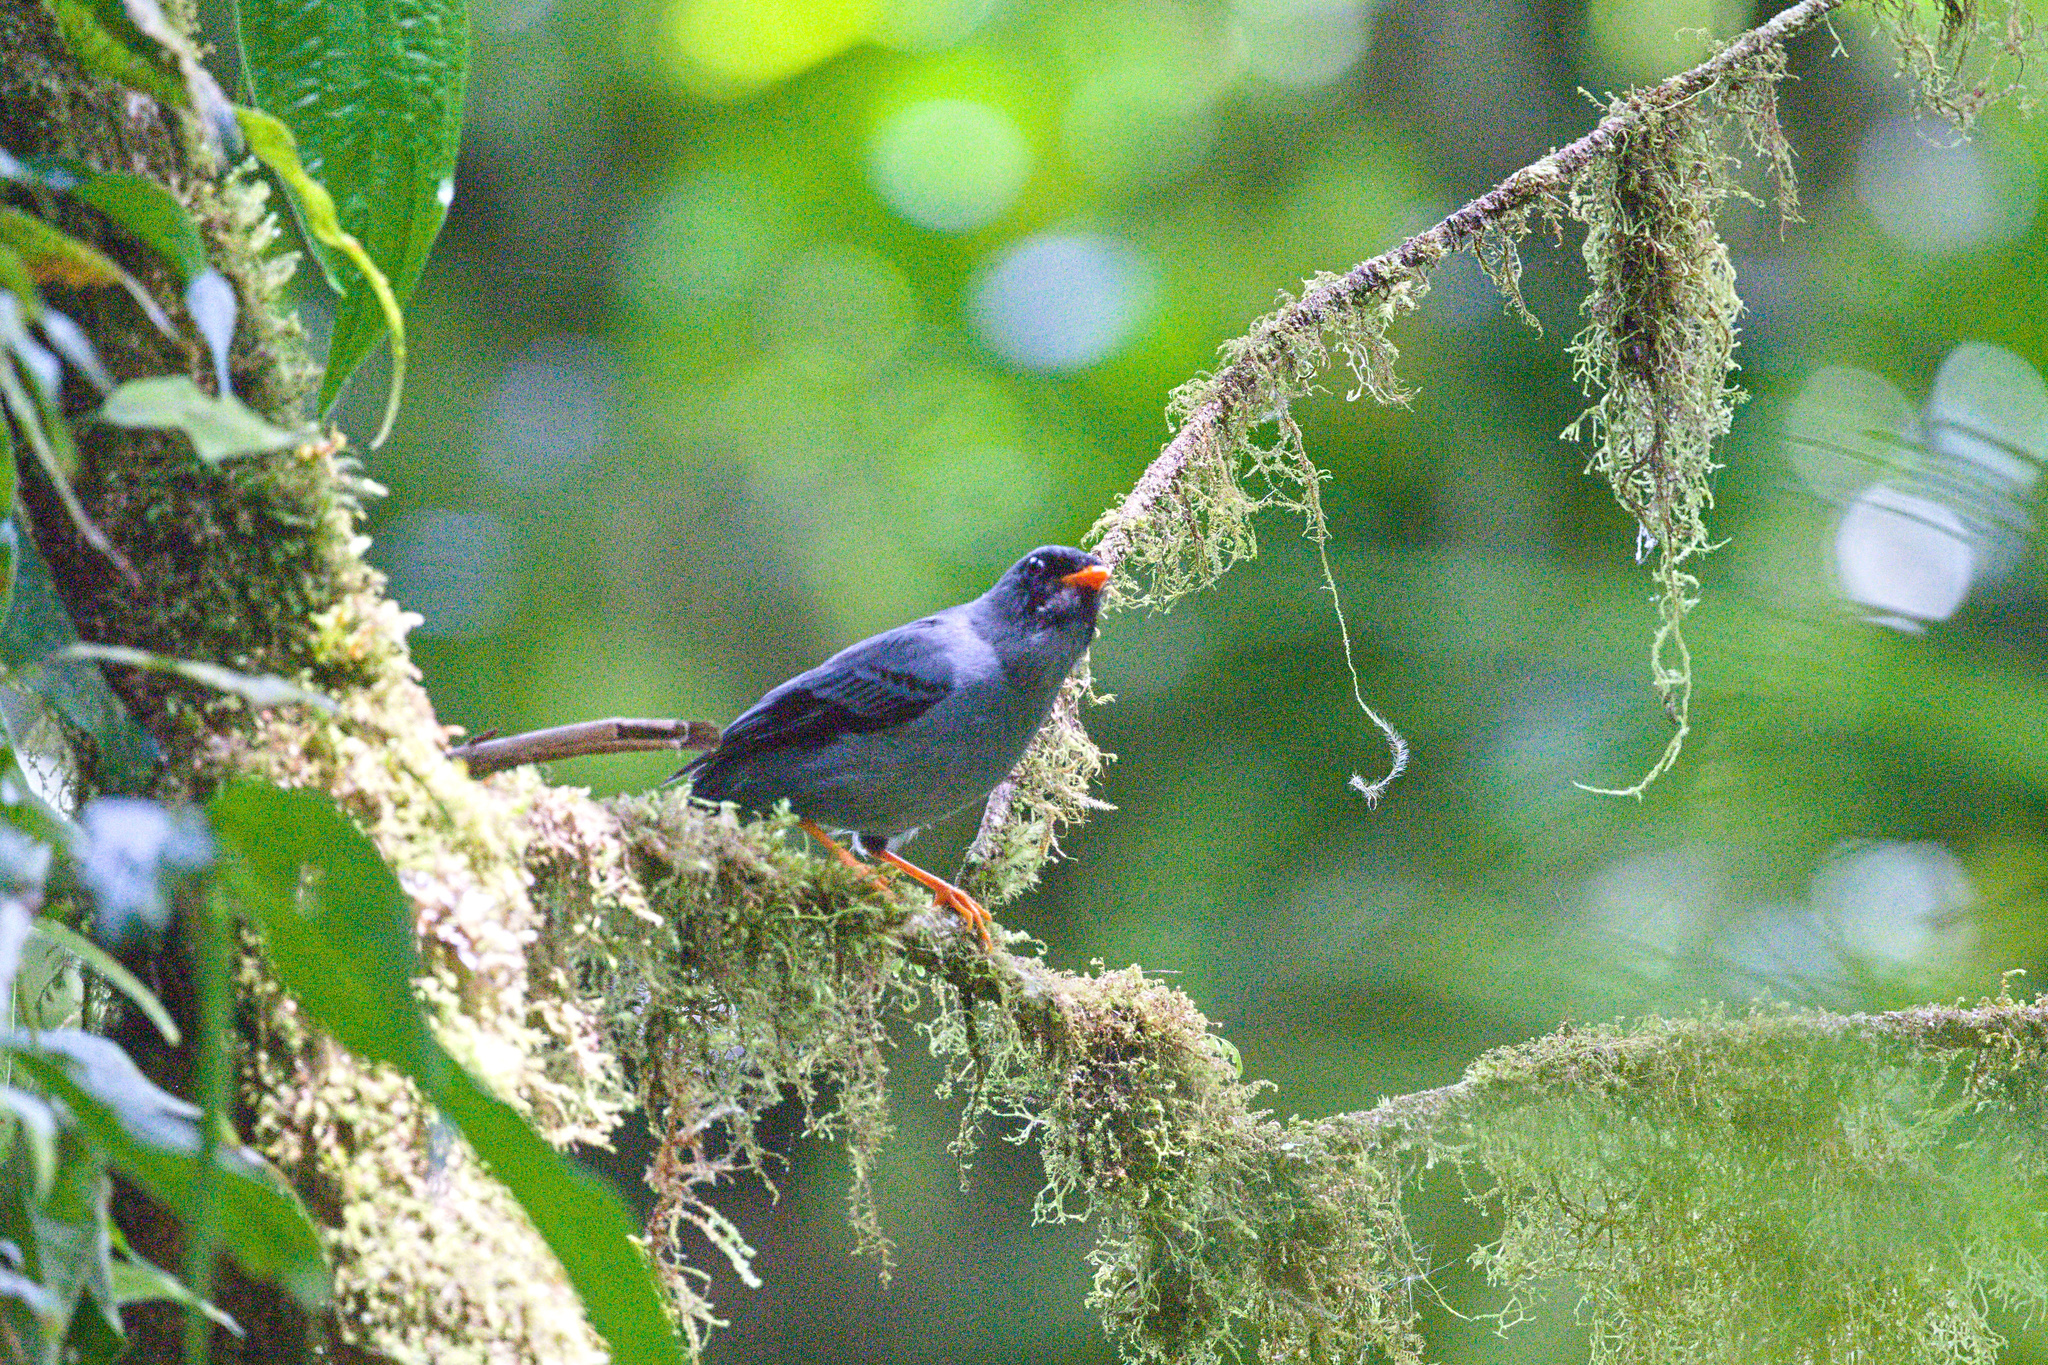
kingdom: Animalia
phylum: Chordata
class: Aves
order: Passeriformes
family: Turdidae
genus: Myadestes
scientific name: Myadestes melanops
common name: Black-faced solitaire
